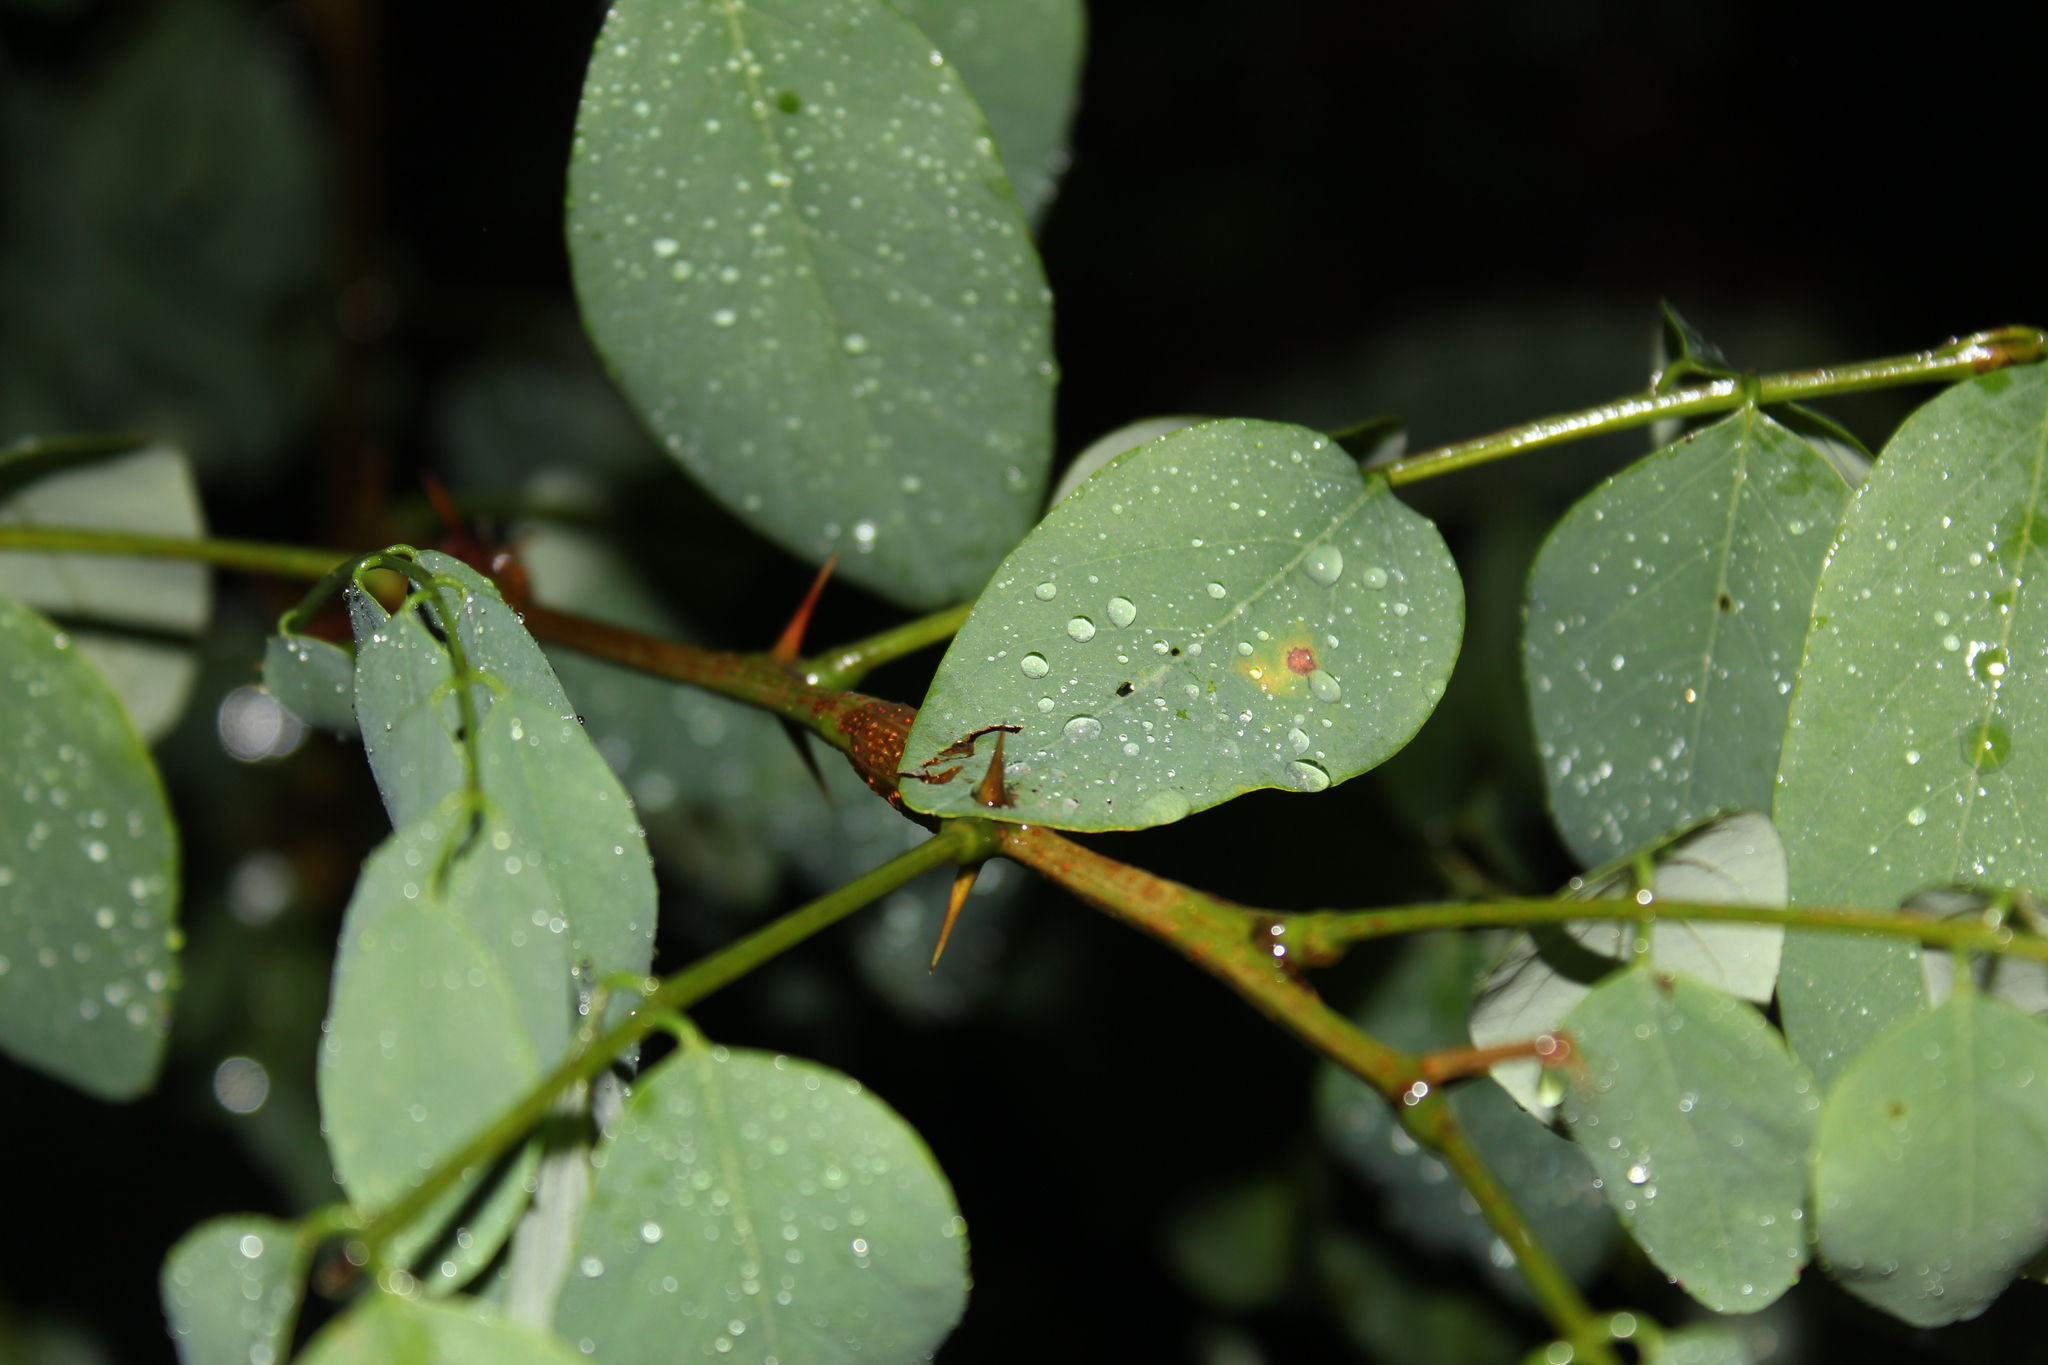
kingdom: Plantae
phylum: Tracheophyta
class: Magnoliopsida
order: Fabales
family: Fabaceae
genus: Robinia
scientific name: Robinia pseudoacacia
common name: Black locust
